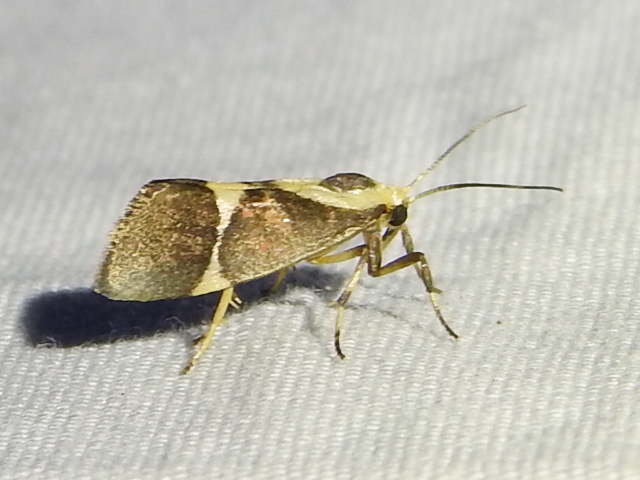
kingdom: Animalia
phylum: Arthropoda
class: Insecta
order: Lepidoptera
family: Erebidae
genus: Cisthene
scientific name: Cisthene subrufa
